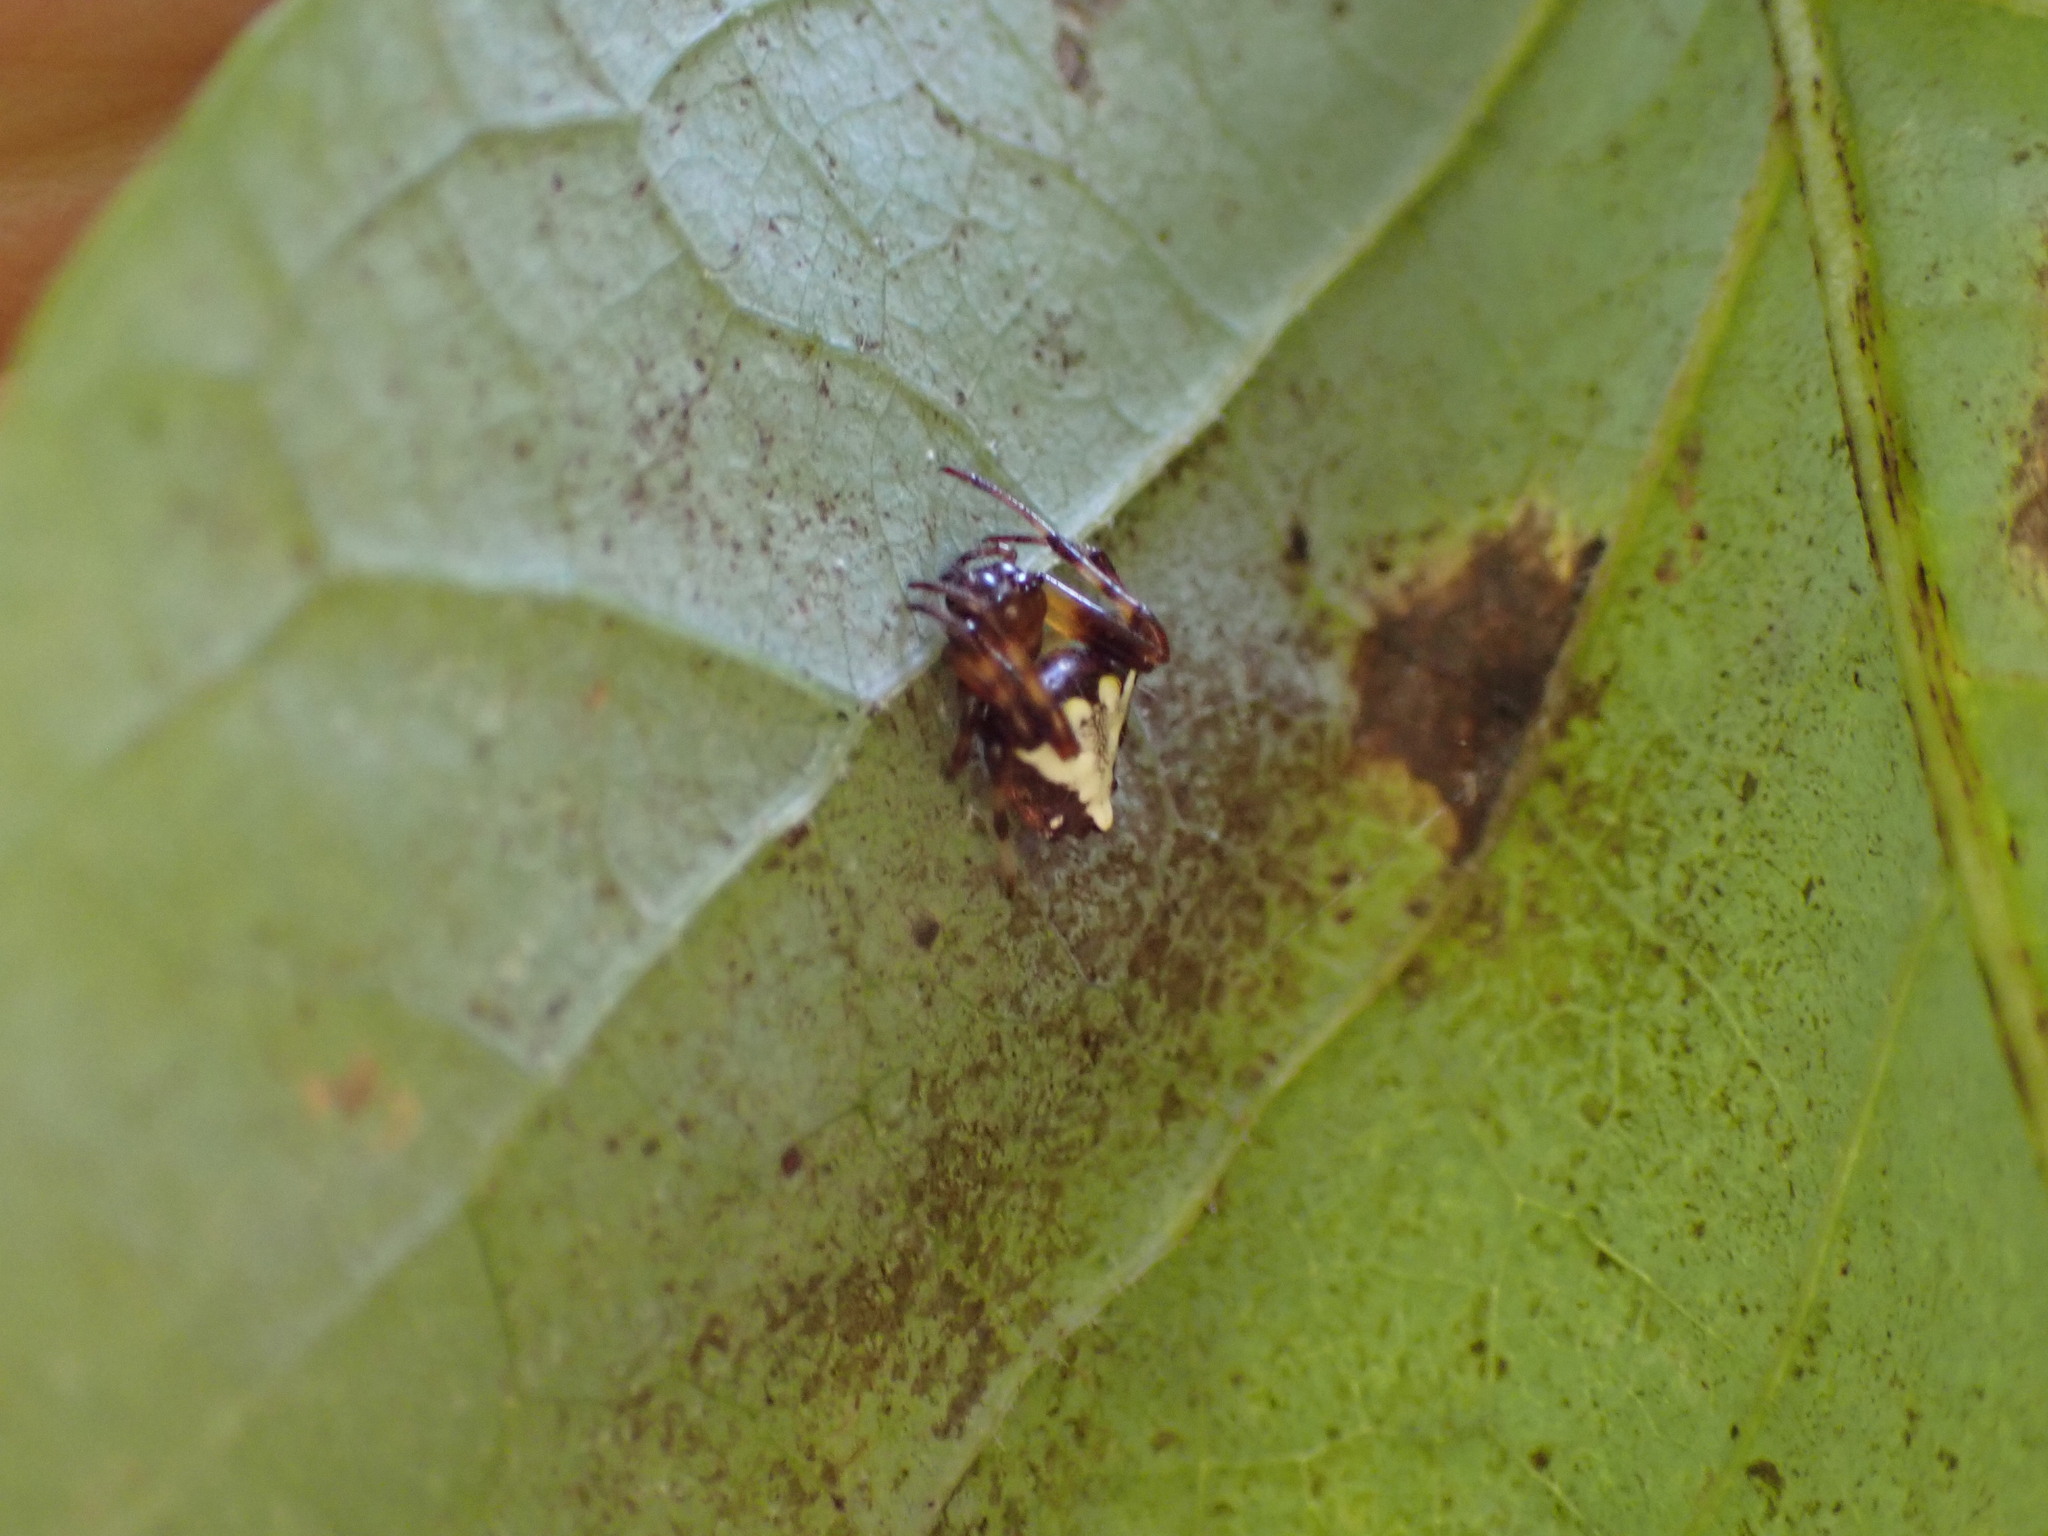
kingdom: Animalia
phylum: Arthropoda
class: Arachnida
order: Araneae
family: Araneidae
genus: Verrucosa
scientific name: Verrucosa arenata
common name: Orb weavers
